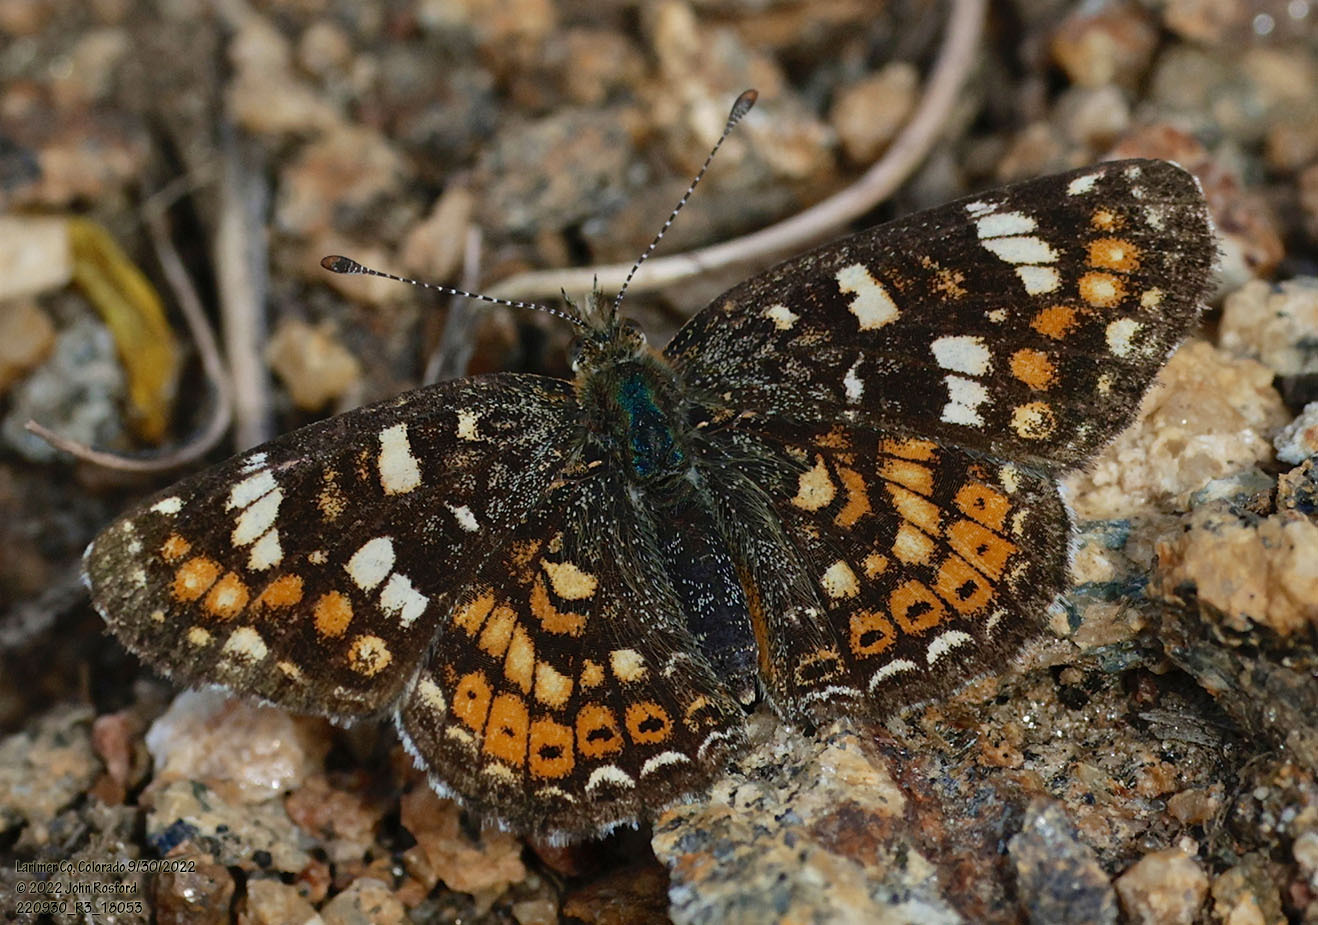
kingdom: Animalia
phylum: Arthropoda
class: Insecta
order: Lepidoptera
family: Nymphalidae
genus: Phyciodes
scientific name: Phyciodes tharos
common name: Pearl crescent
